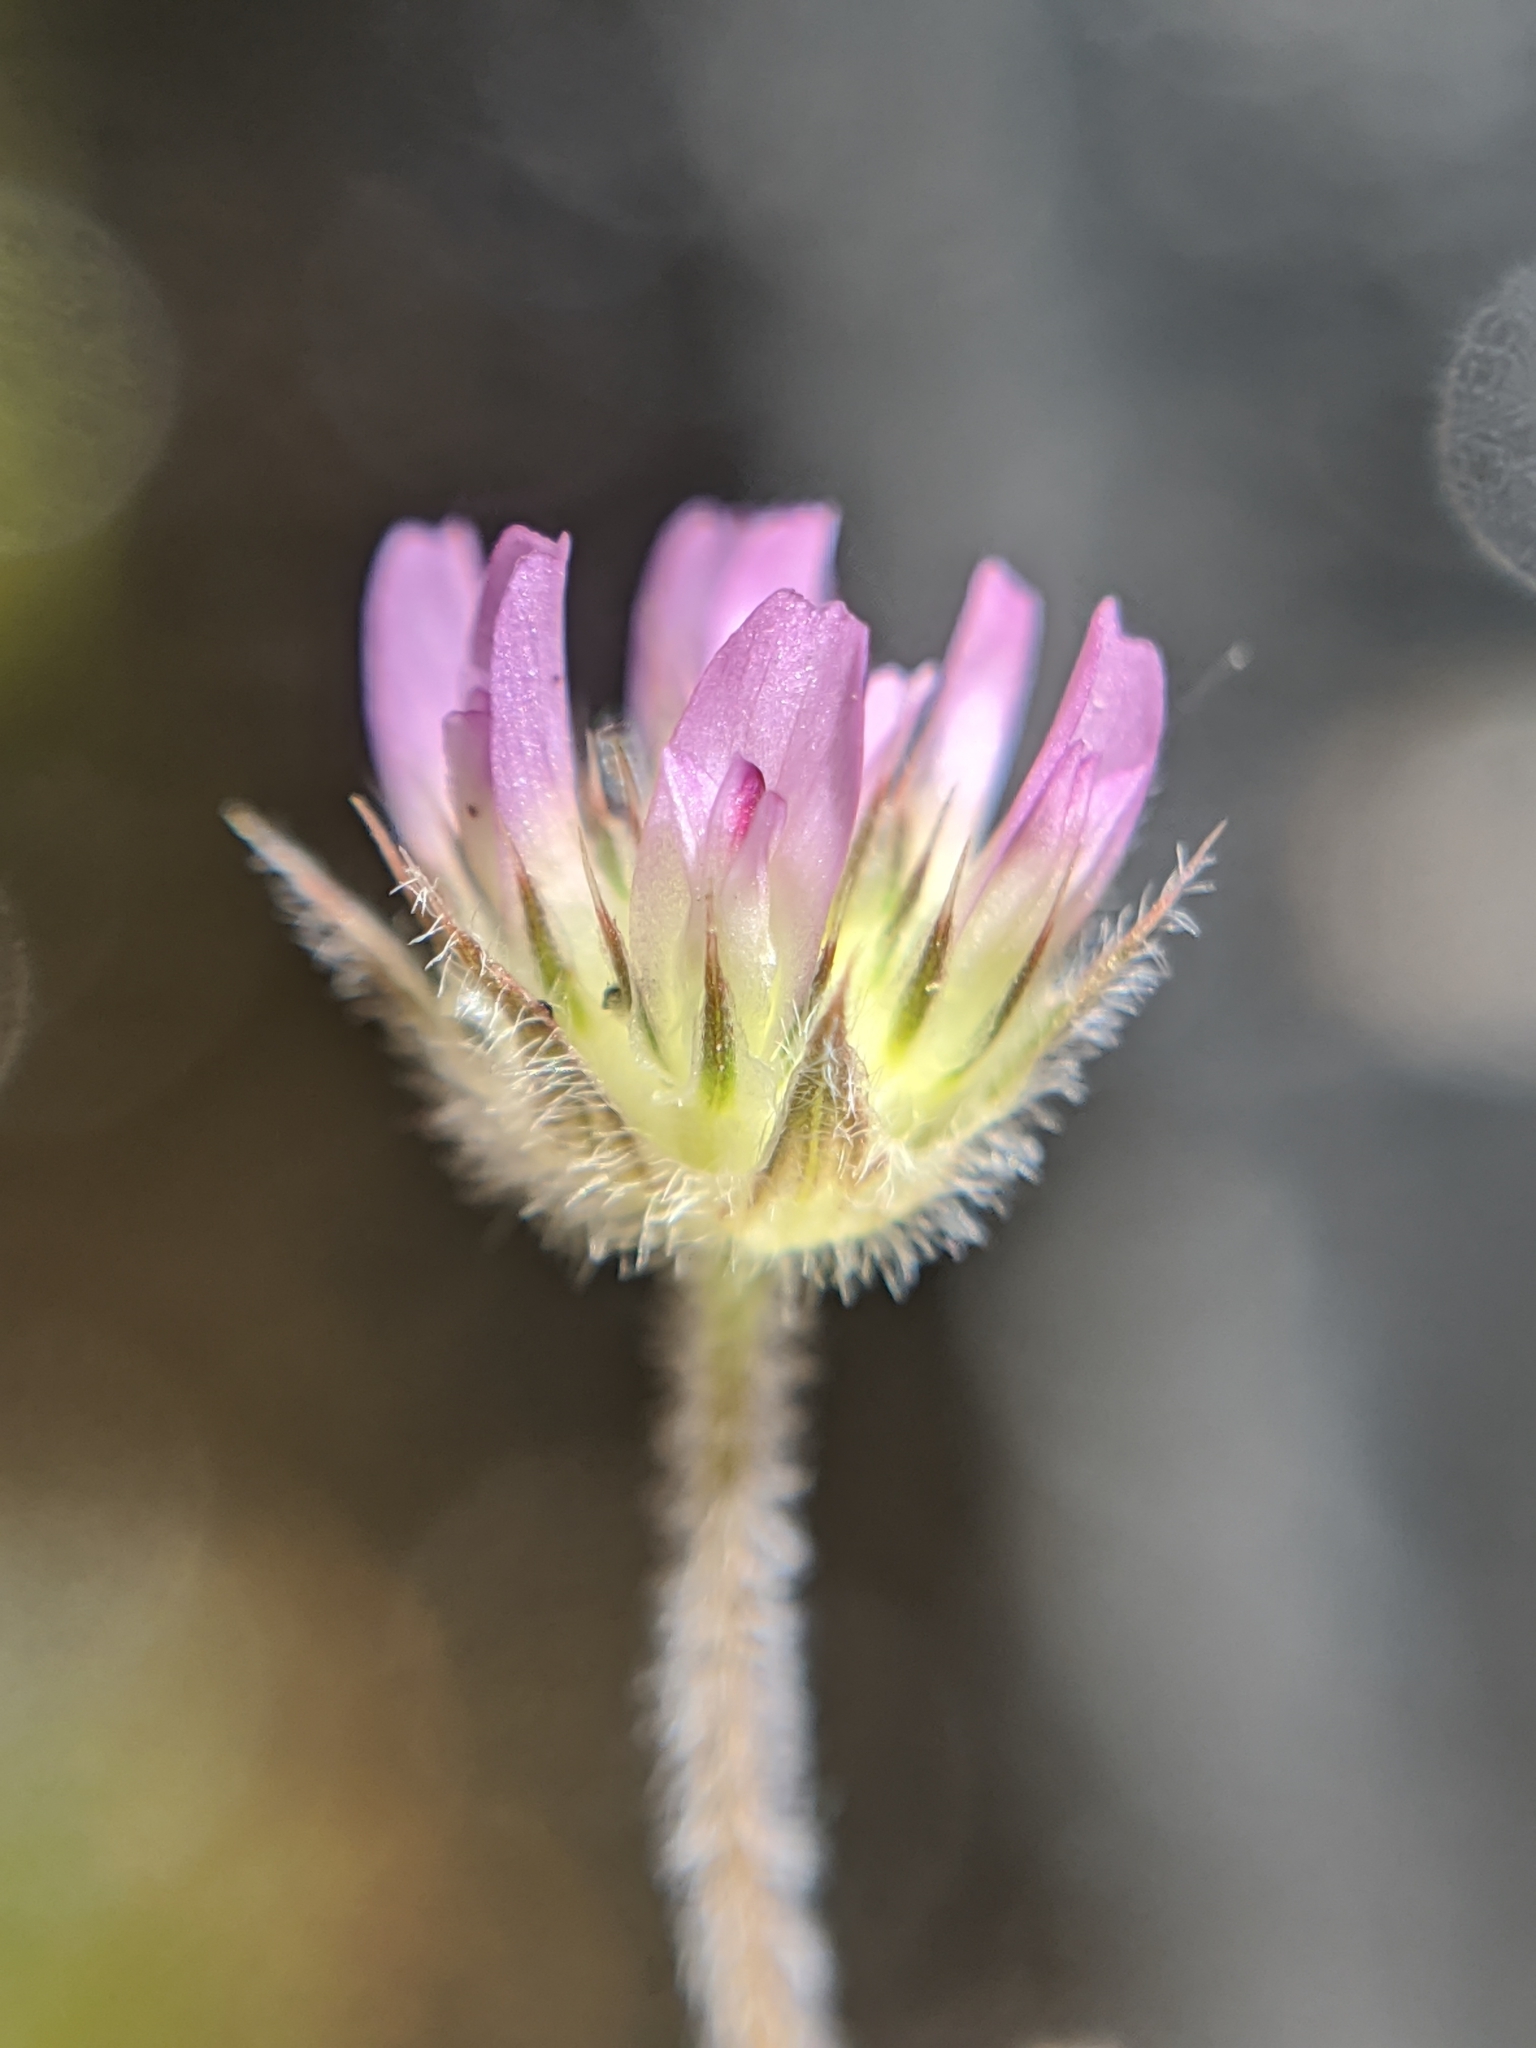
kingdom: Plantae
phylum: Tracheophyta
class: Magnoliopsida
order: Fabales
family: Fabaceae
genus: Trifolium
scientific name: Trifolium microcephalum
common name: Maiden clover
